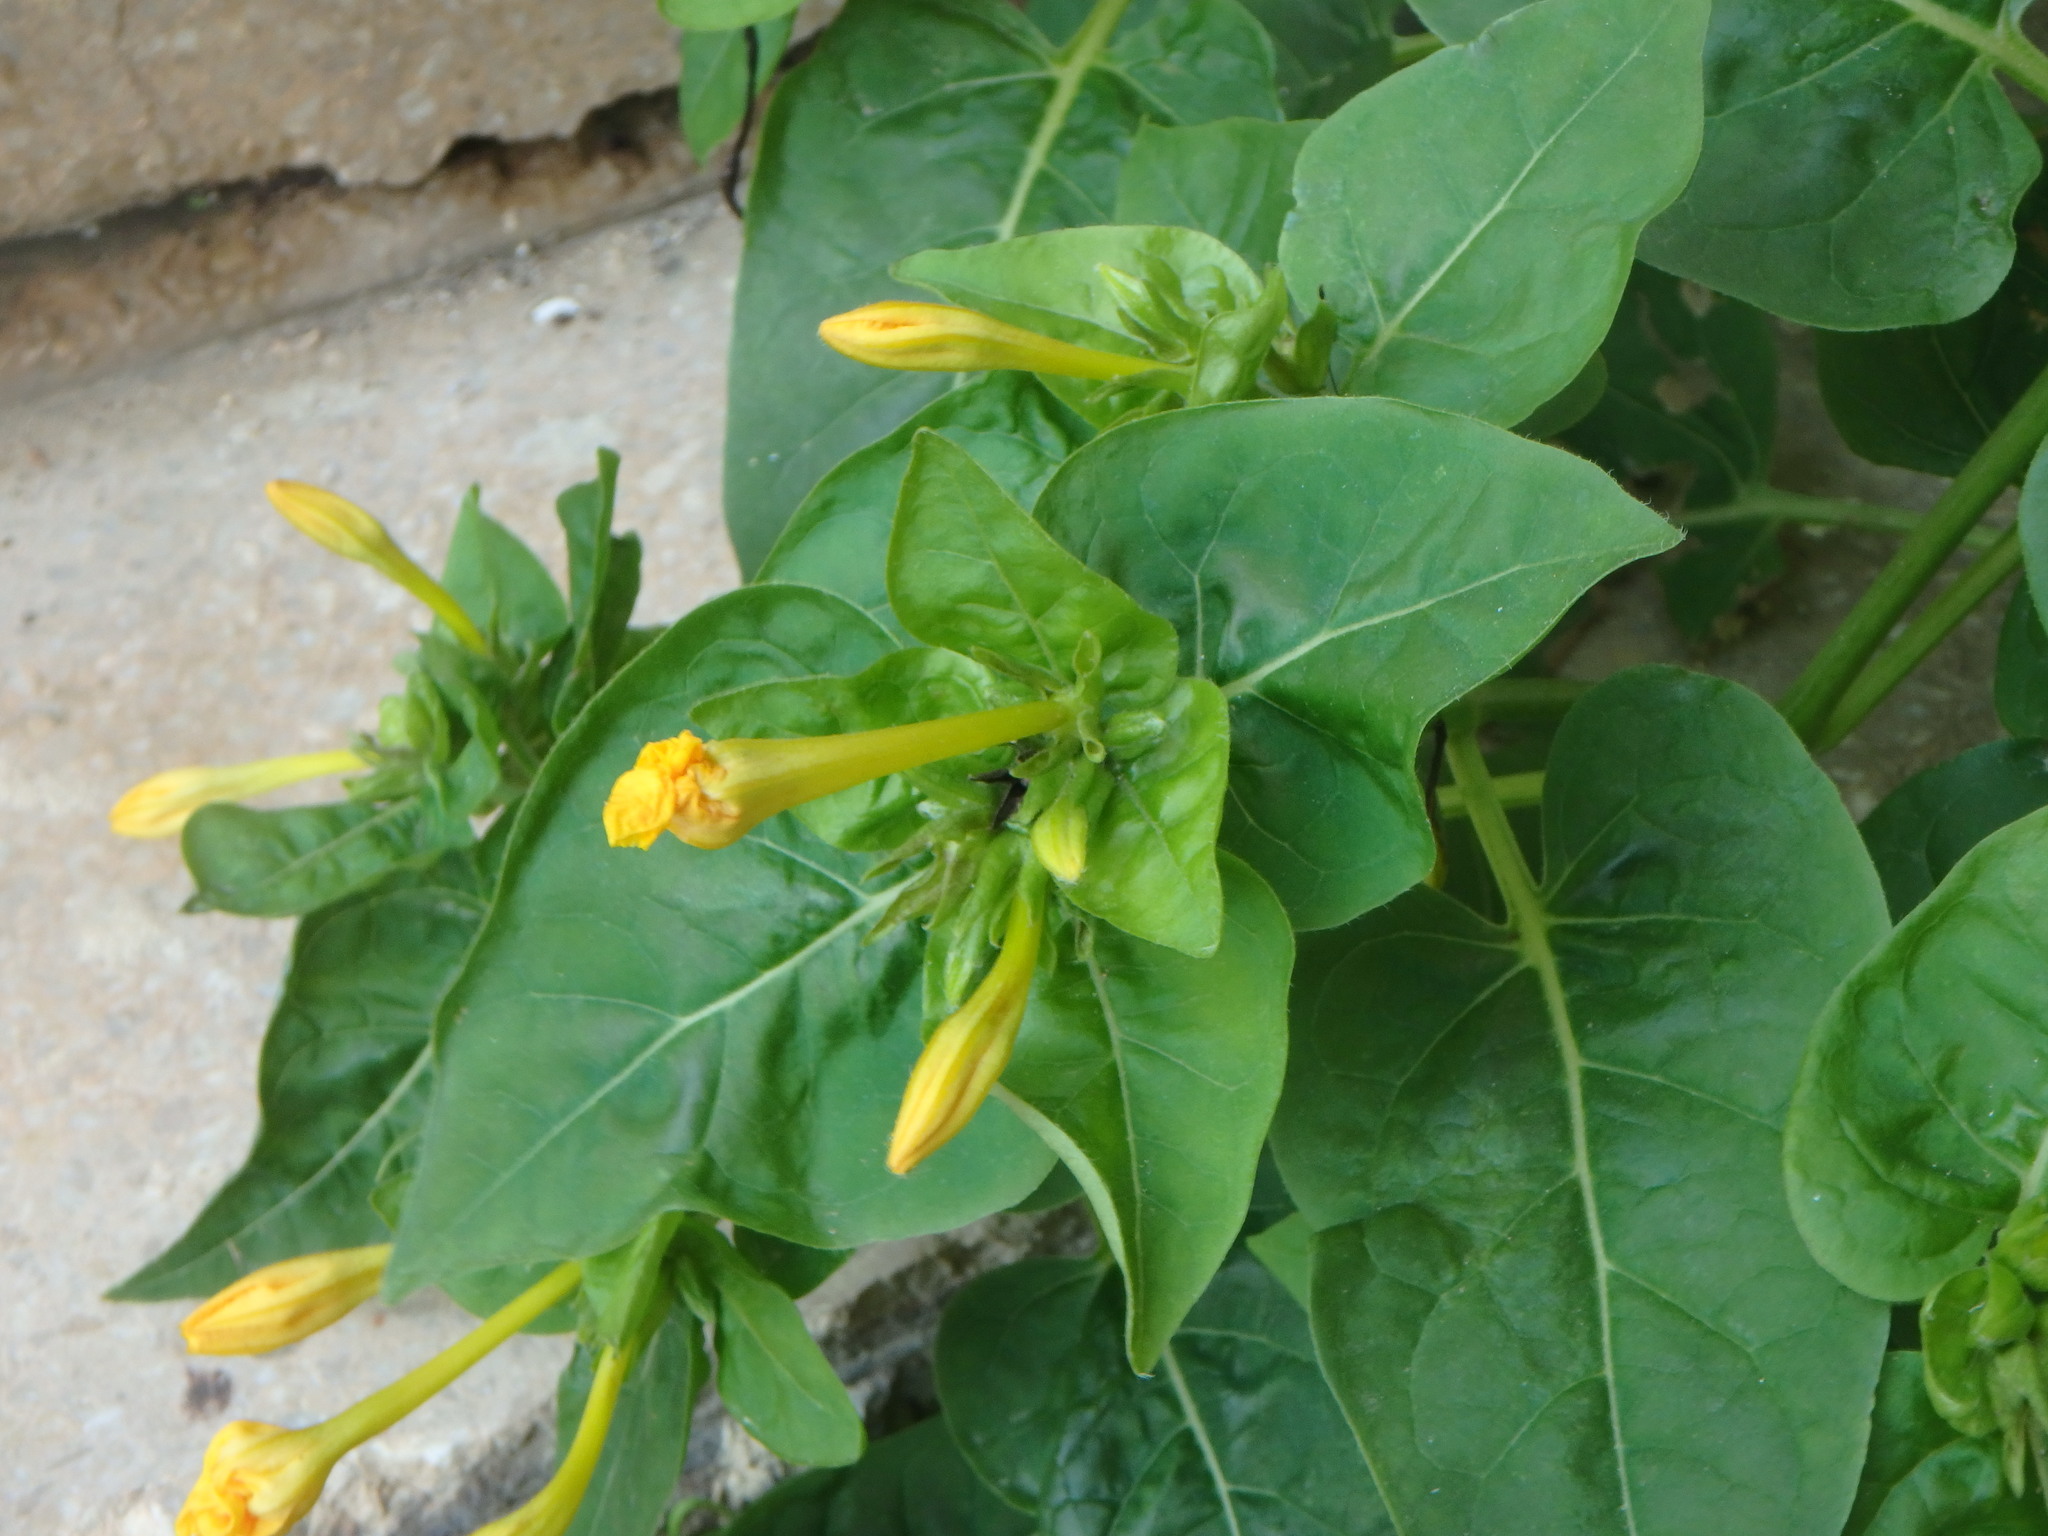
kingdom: Plantae
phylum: Tracheophyta
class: Magnoliopsida
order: Caryophyllales
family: Nyctaginaceae
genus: Mirabilis
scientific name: Mirabilis jalapa
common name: Marvel-of-peru
